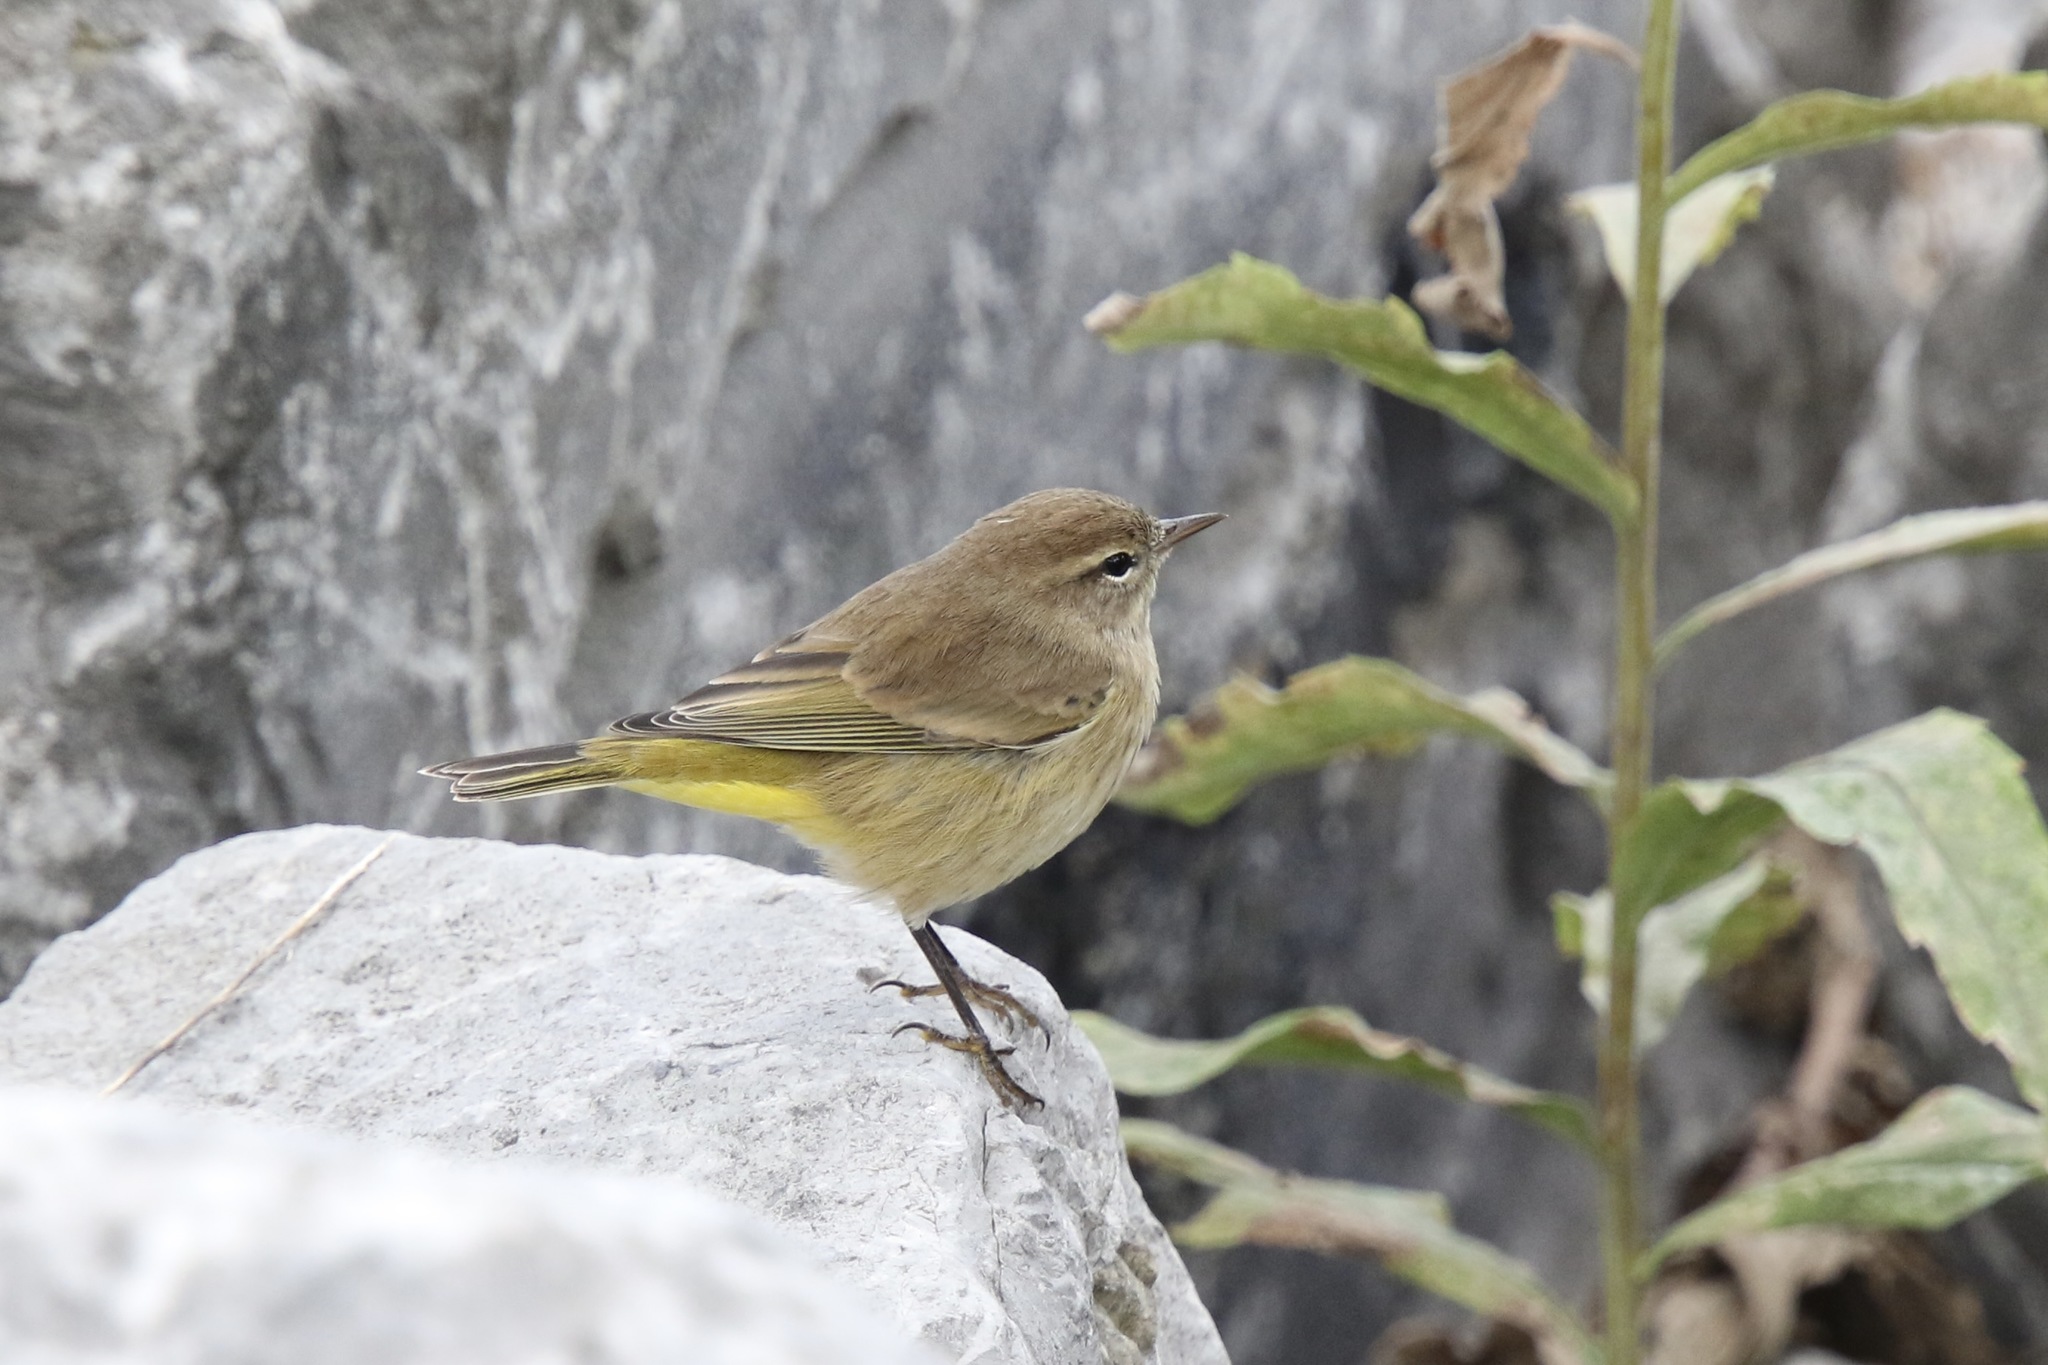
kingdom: Animalia
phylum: Chordata
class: Aves
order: Passeriformes
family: Parulidae
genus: Setophaga
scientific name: Setophaga palmarum
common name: Palm warbler
